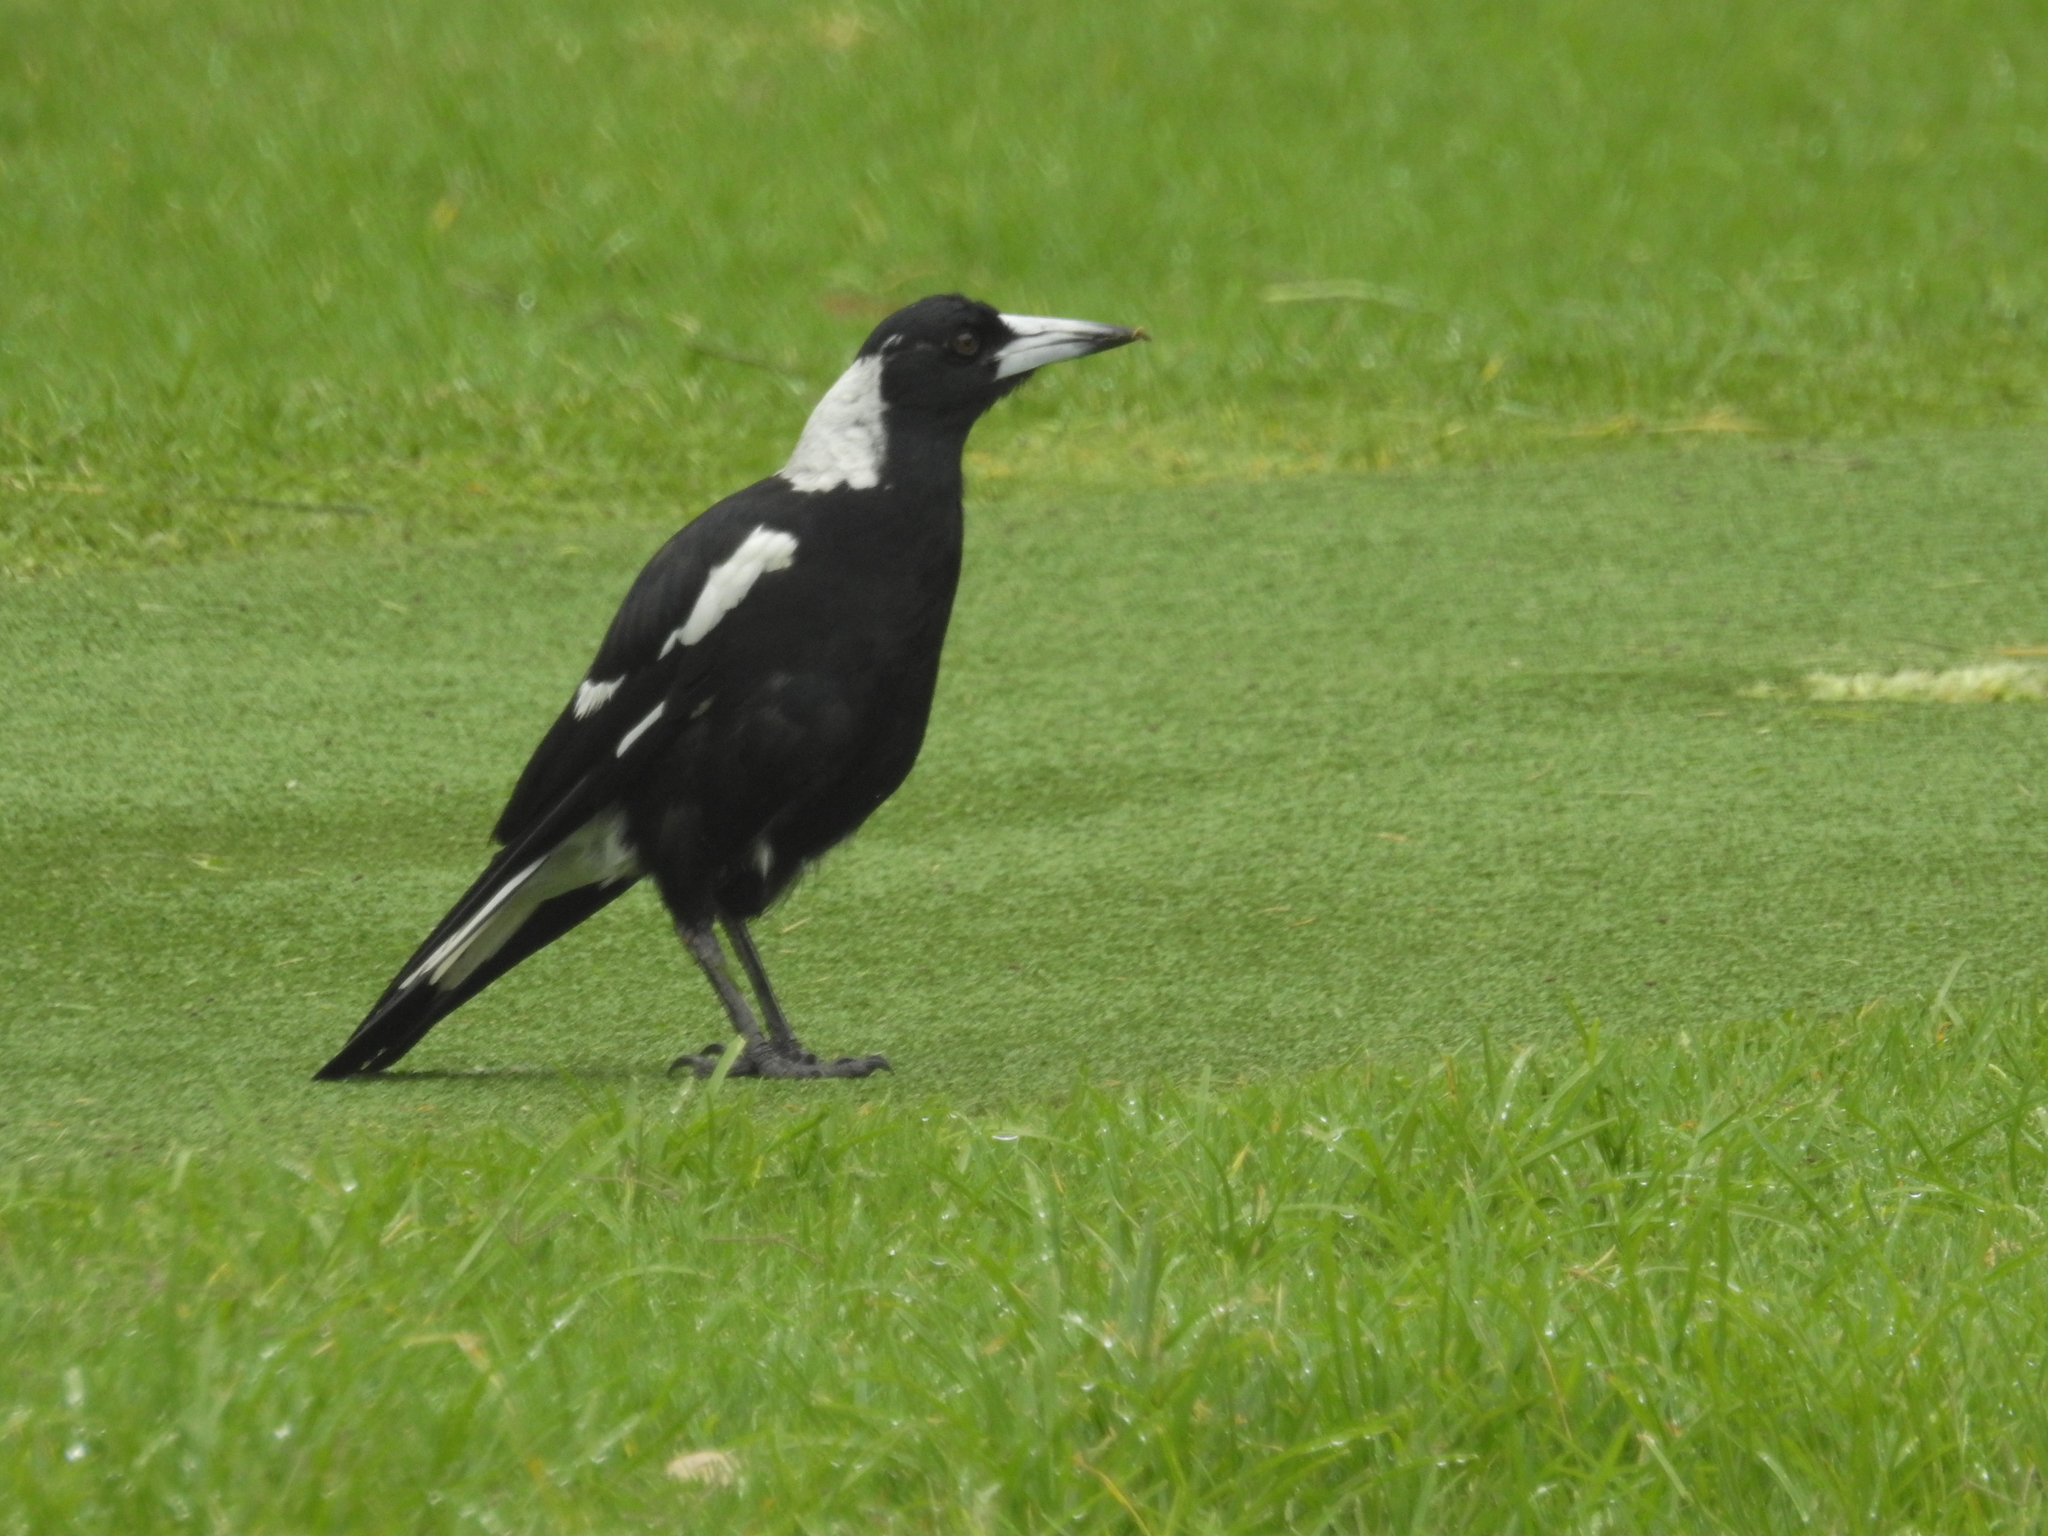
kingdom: Animalia
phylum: Chordata
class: Aves
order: Passeriformes
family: Cracticidae
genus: Gymnorhina
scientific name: Gymnorhina tibicen
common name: Australian magpie
